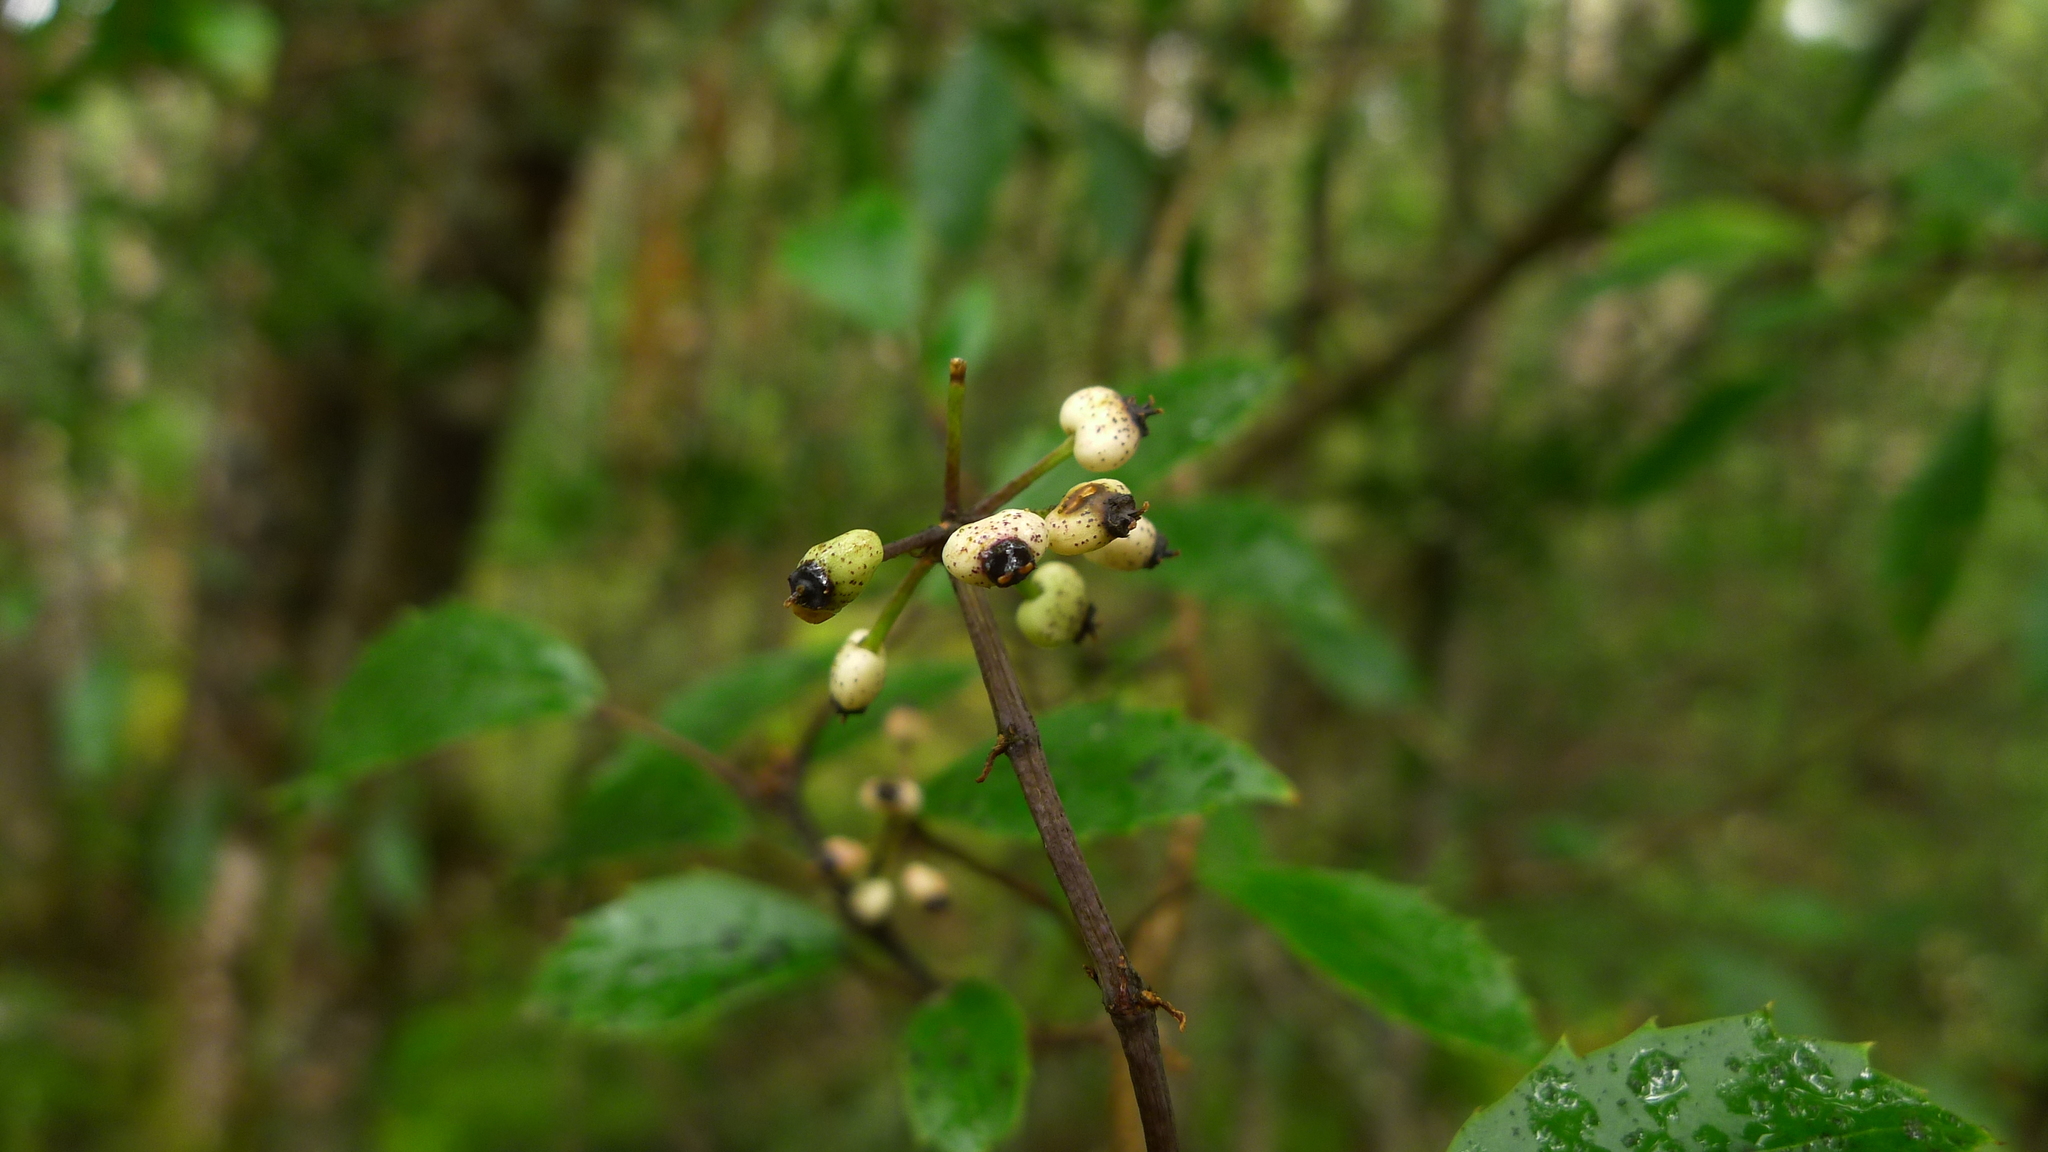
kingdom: Plantae
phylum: Tracheophyta
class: Magnoliopsida
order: Apiales
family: Araliaceae
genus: Raukaua
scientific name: Raukaua simplex
